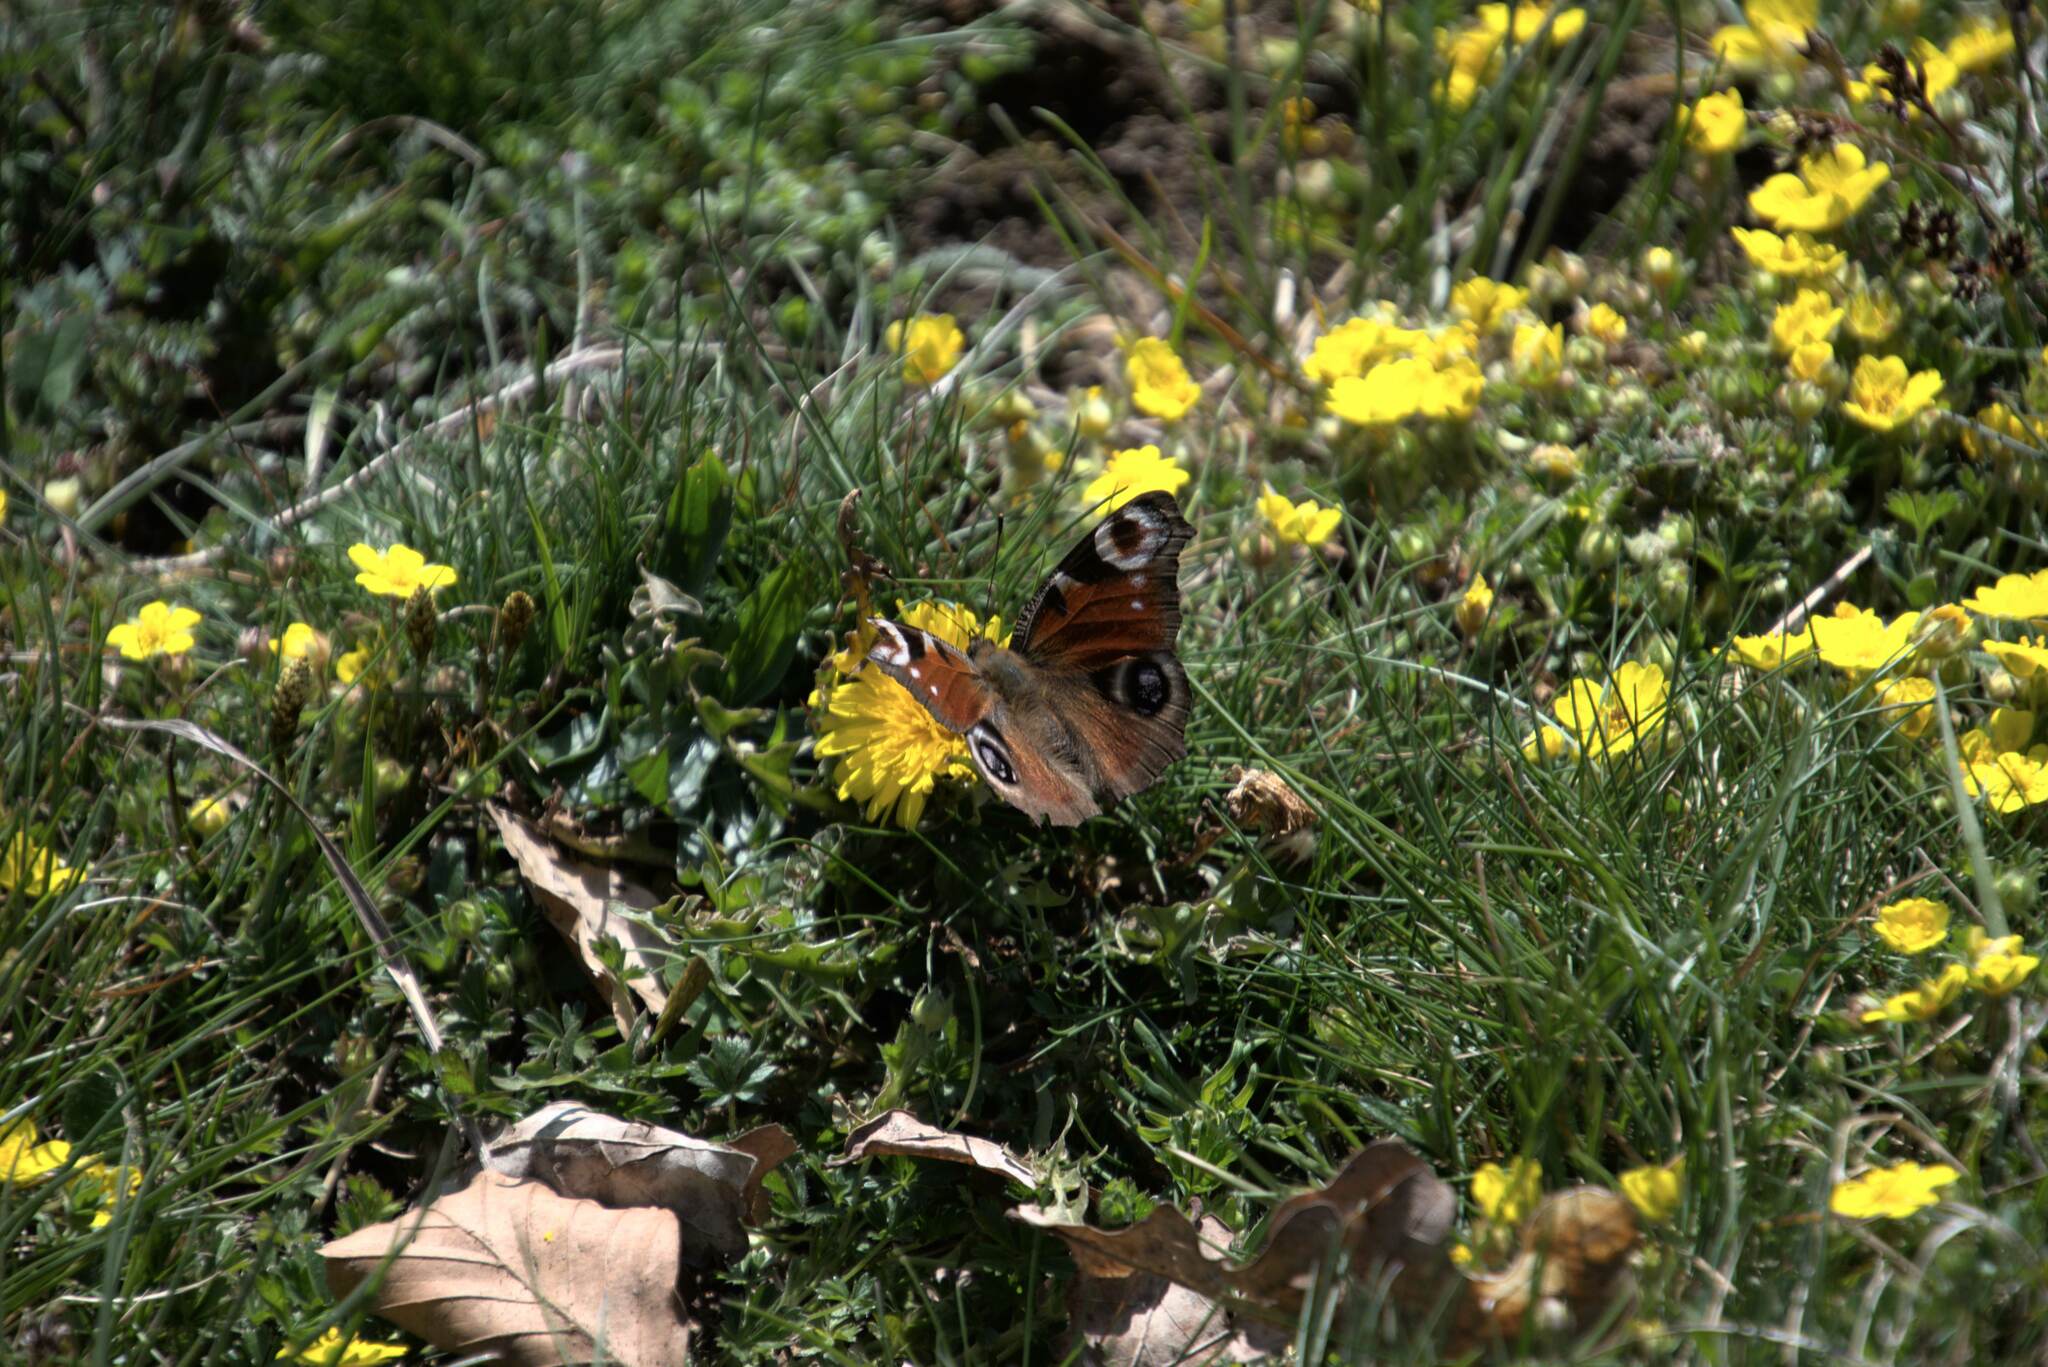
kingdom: Animalia
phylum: Arthropoda
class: Insecta
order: Lepidoptera
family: Nymphalidae
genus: Aglais
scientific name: Aglais io
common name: Peacock
